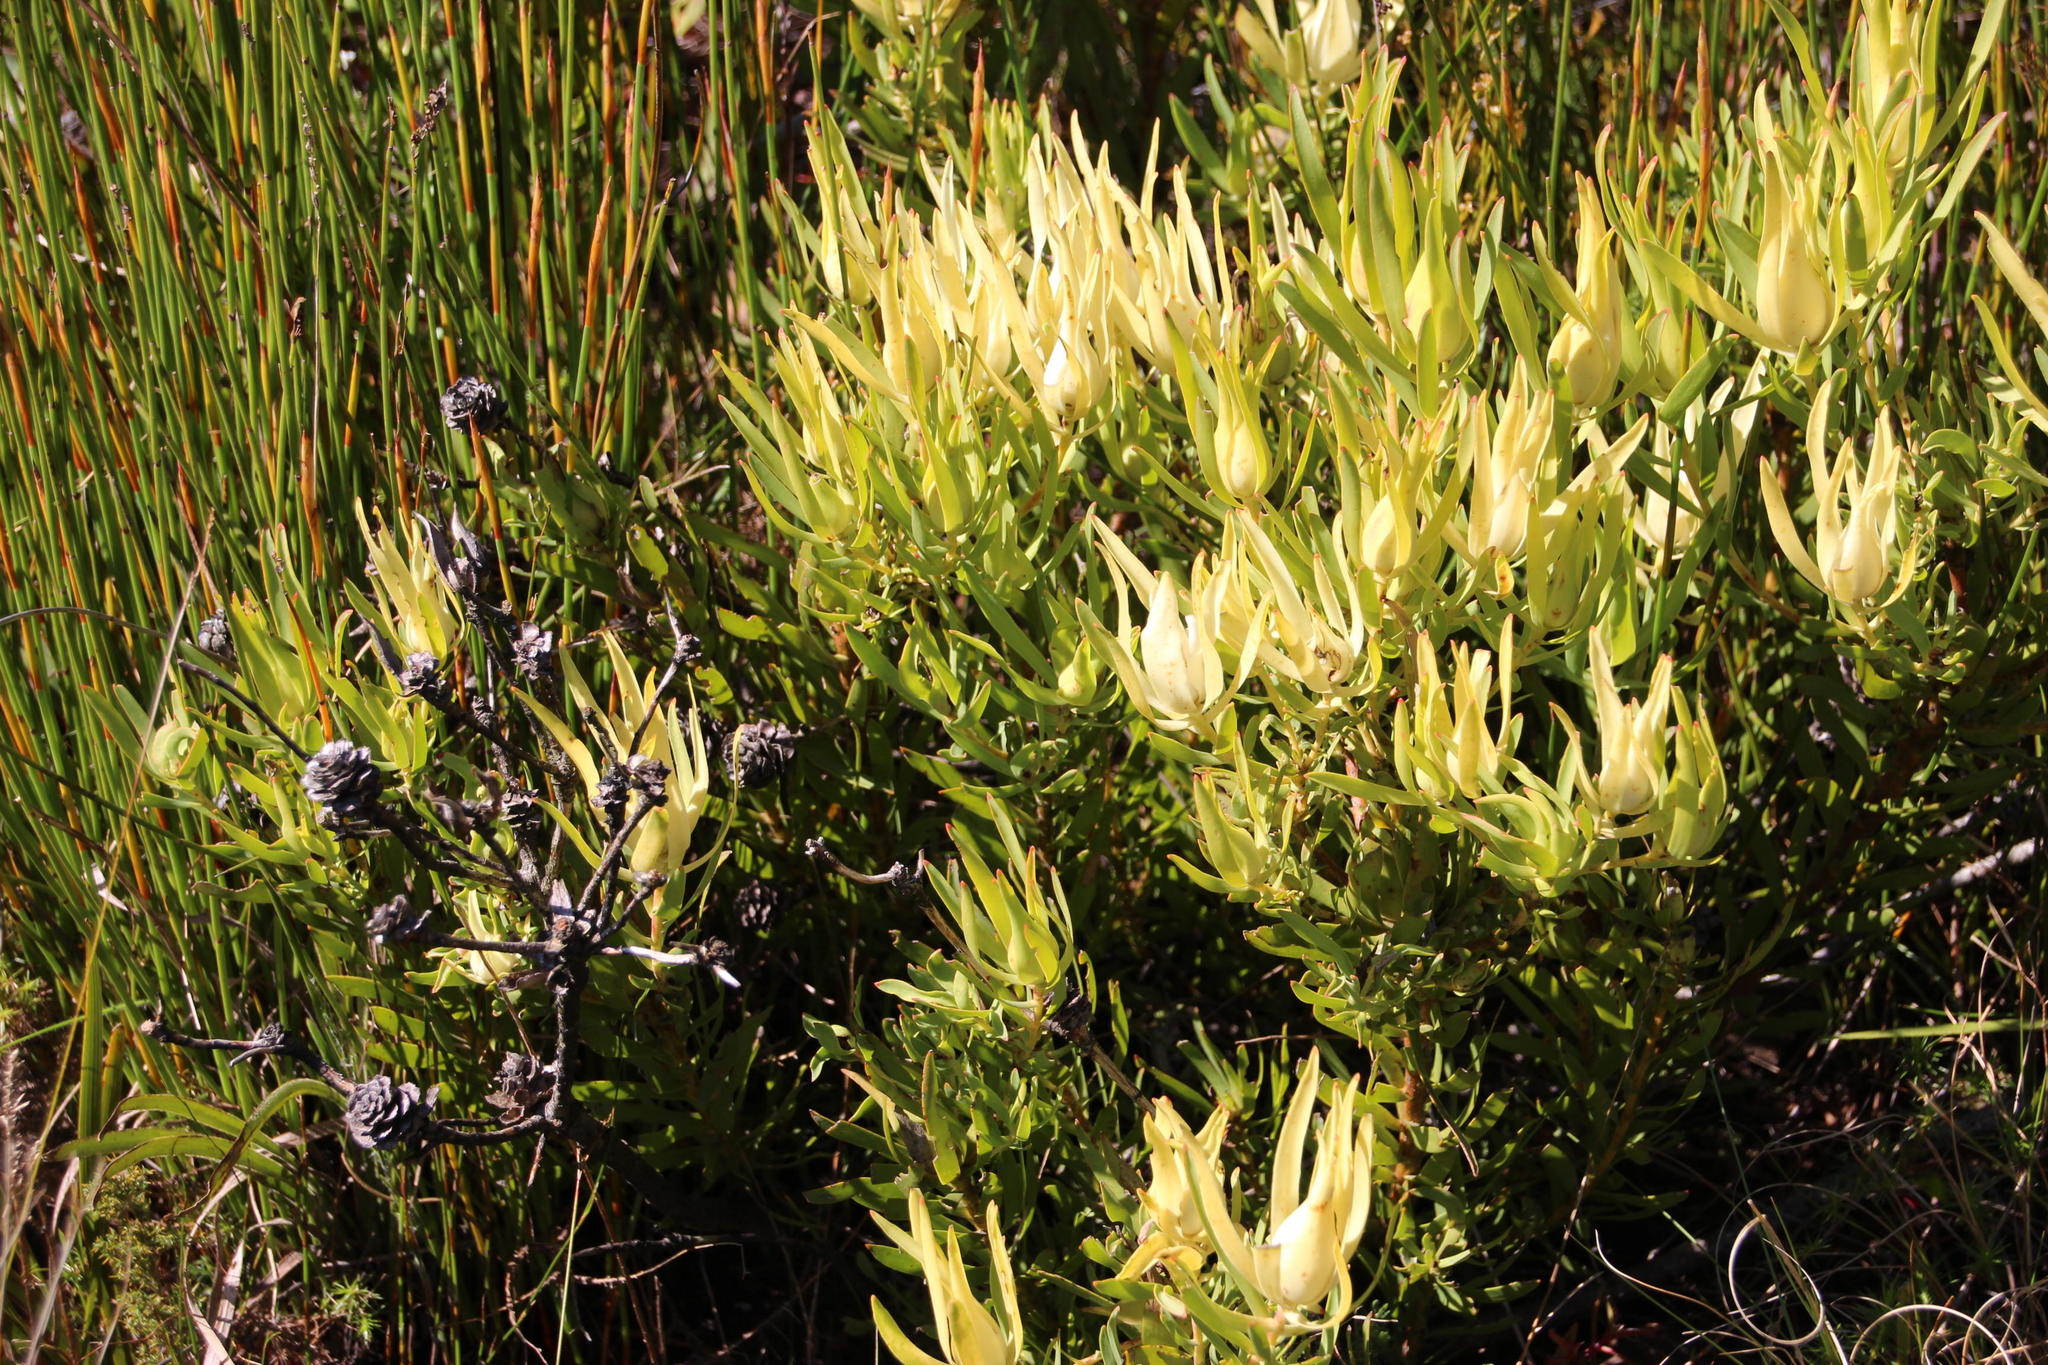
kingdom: Plantae
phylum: Tracheophyta
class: Magnoliopsida
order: Proteales
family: Proteaceae
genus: Leucadendron
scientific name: Leucadendron salignum
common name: Common sunshine conebush
